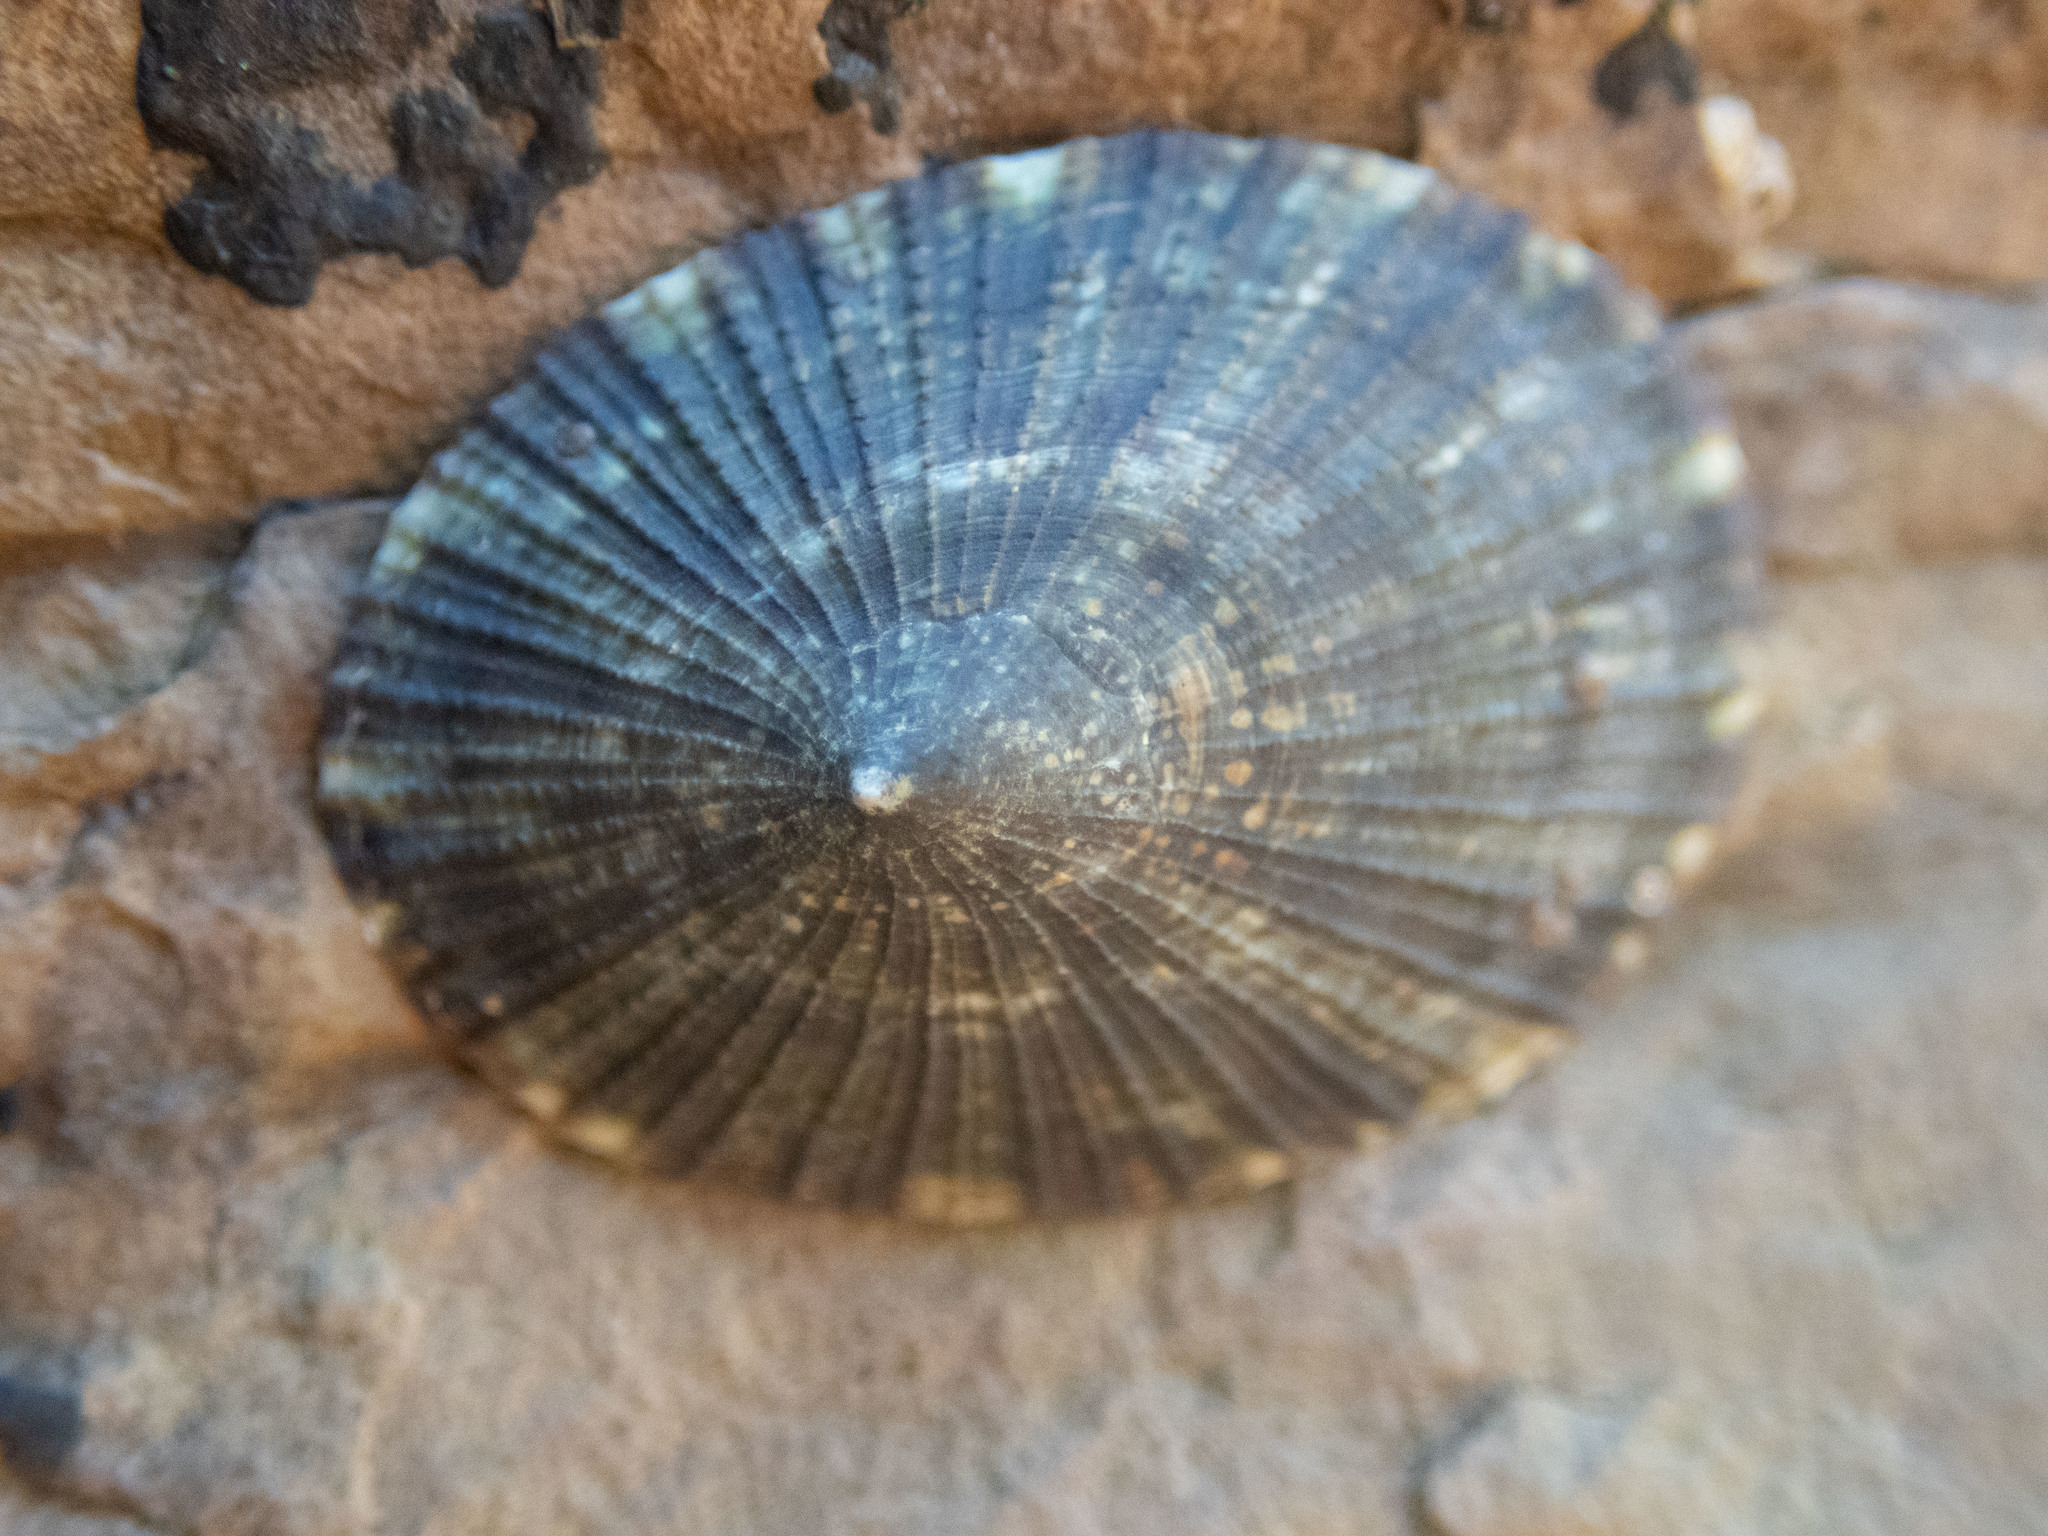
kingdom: Animalia
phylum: Mollusca
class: Gastropoda
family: Lottiidae
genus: Scurria
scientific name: Scurria stipulata
